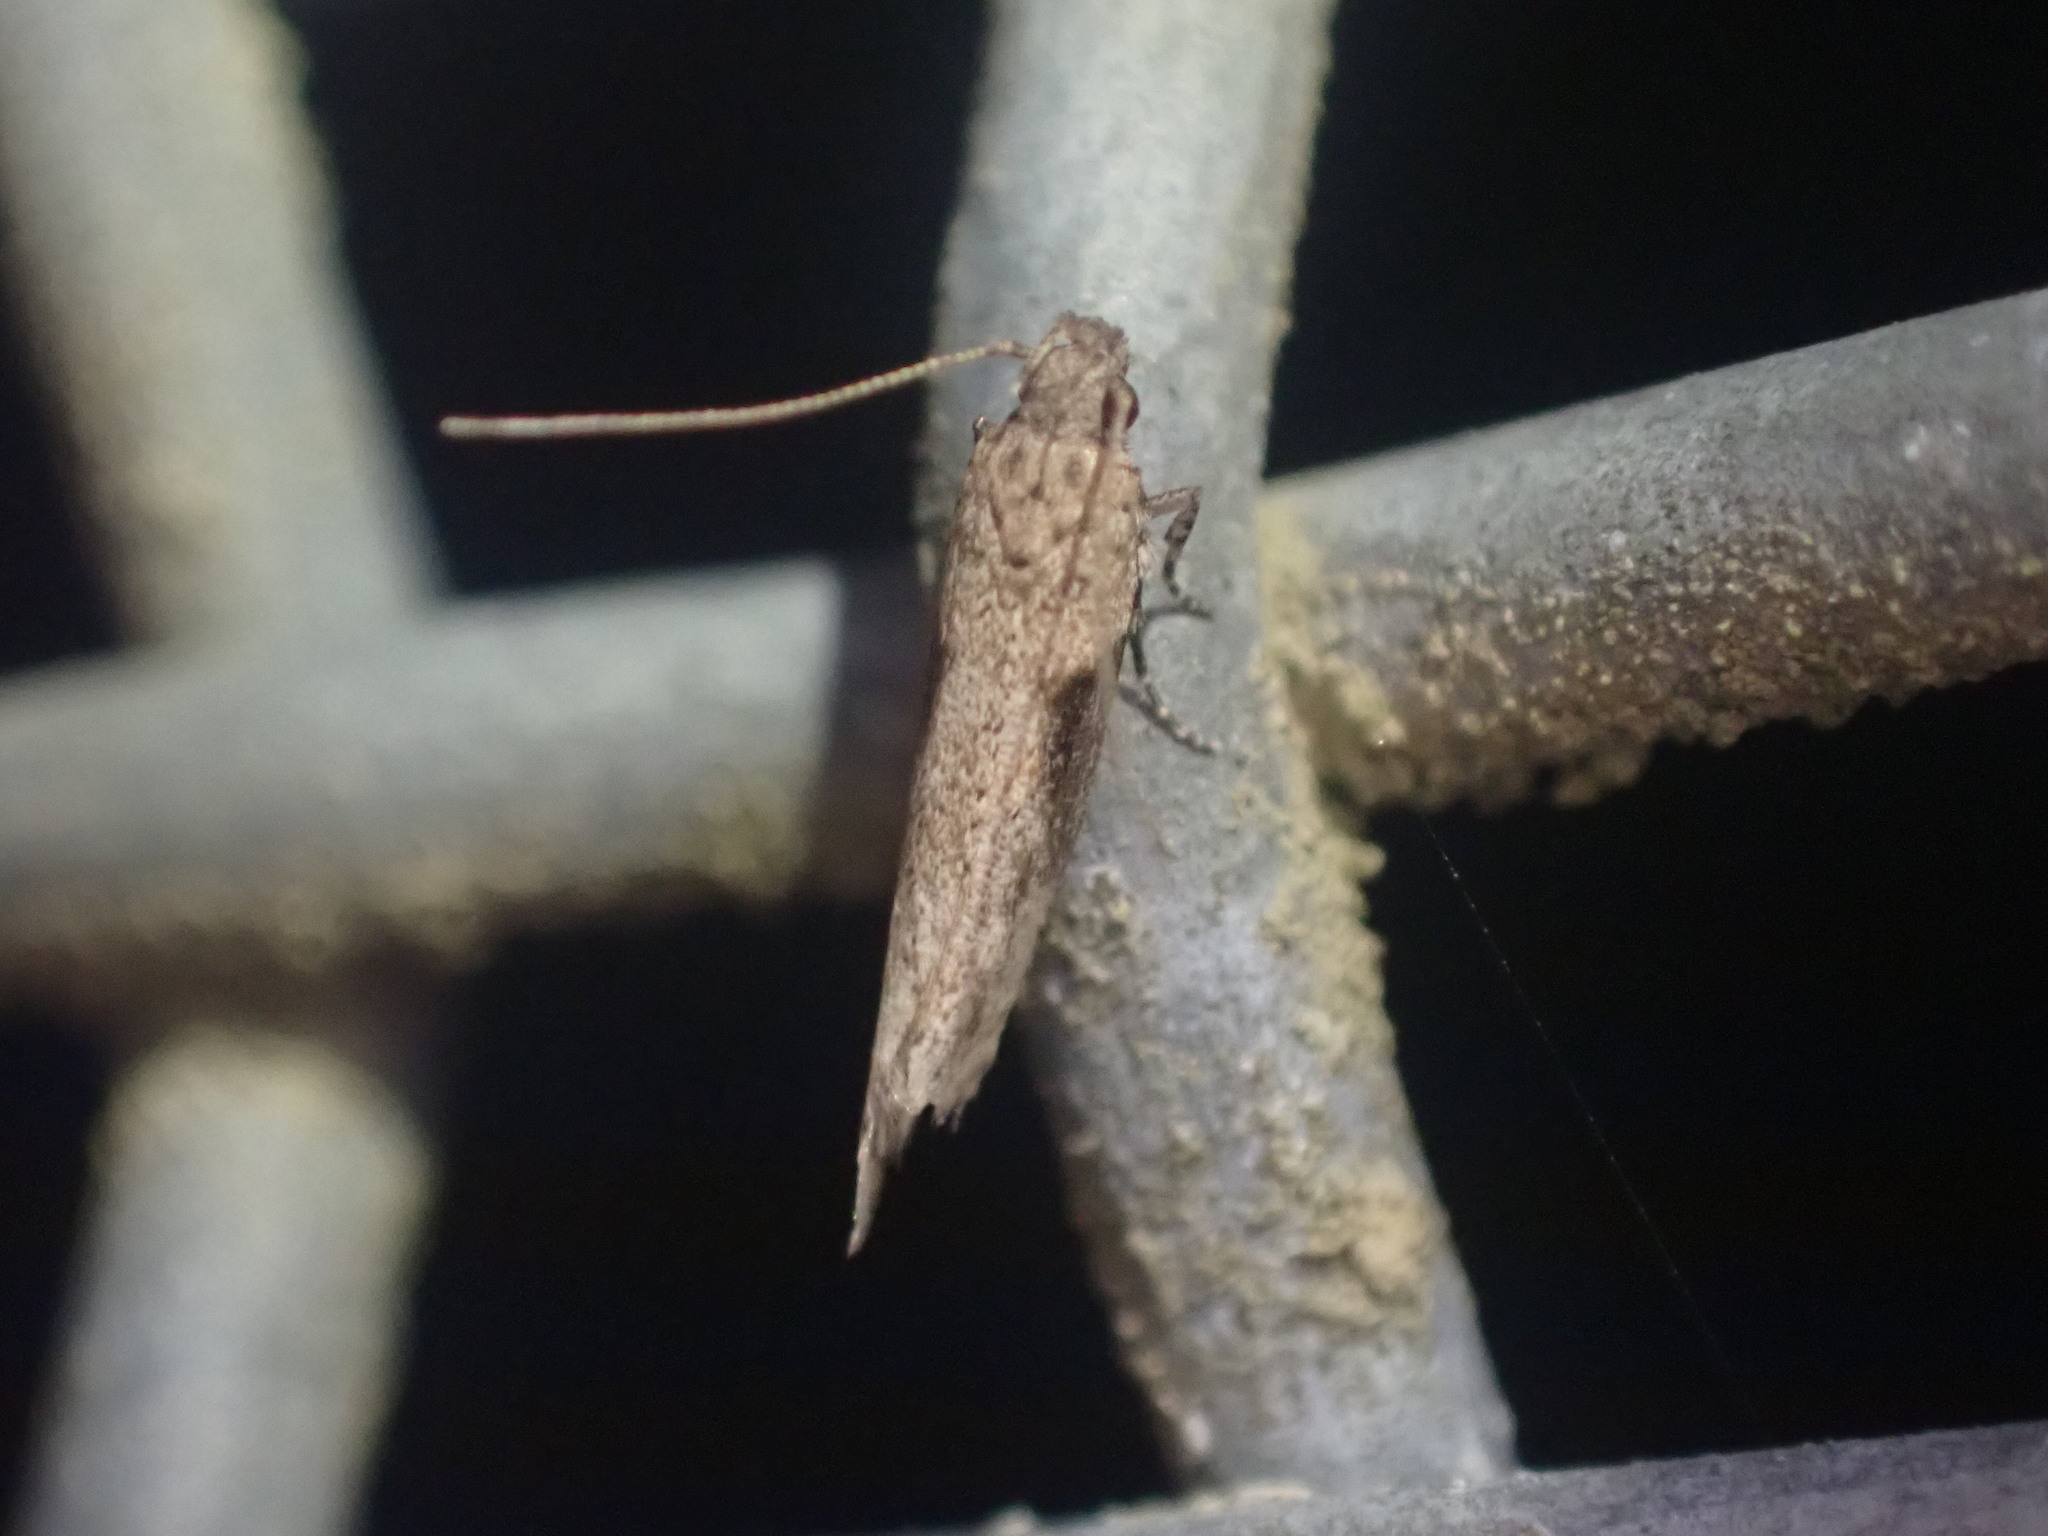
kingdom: Animalia
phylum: Arthropoda
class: Insecta
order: Lepidoptera
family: Gelechiidae
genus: Symmetrischema
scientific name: Symmetrischema tangolias
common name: Moth
